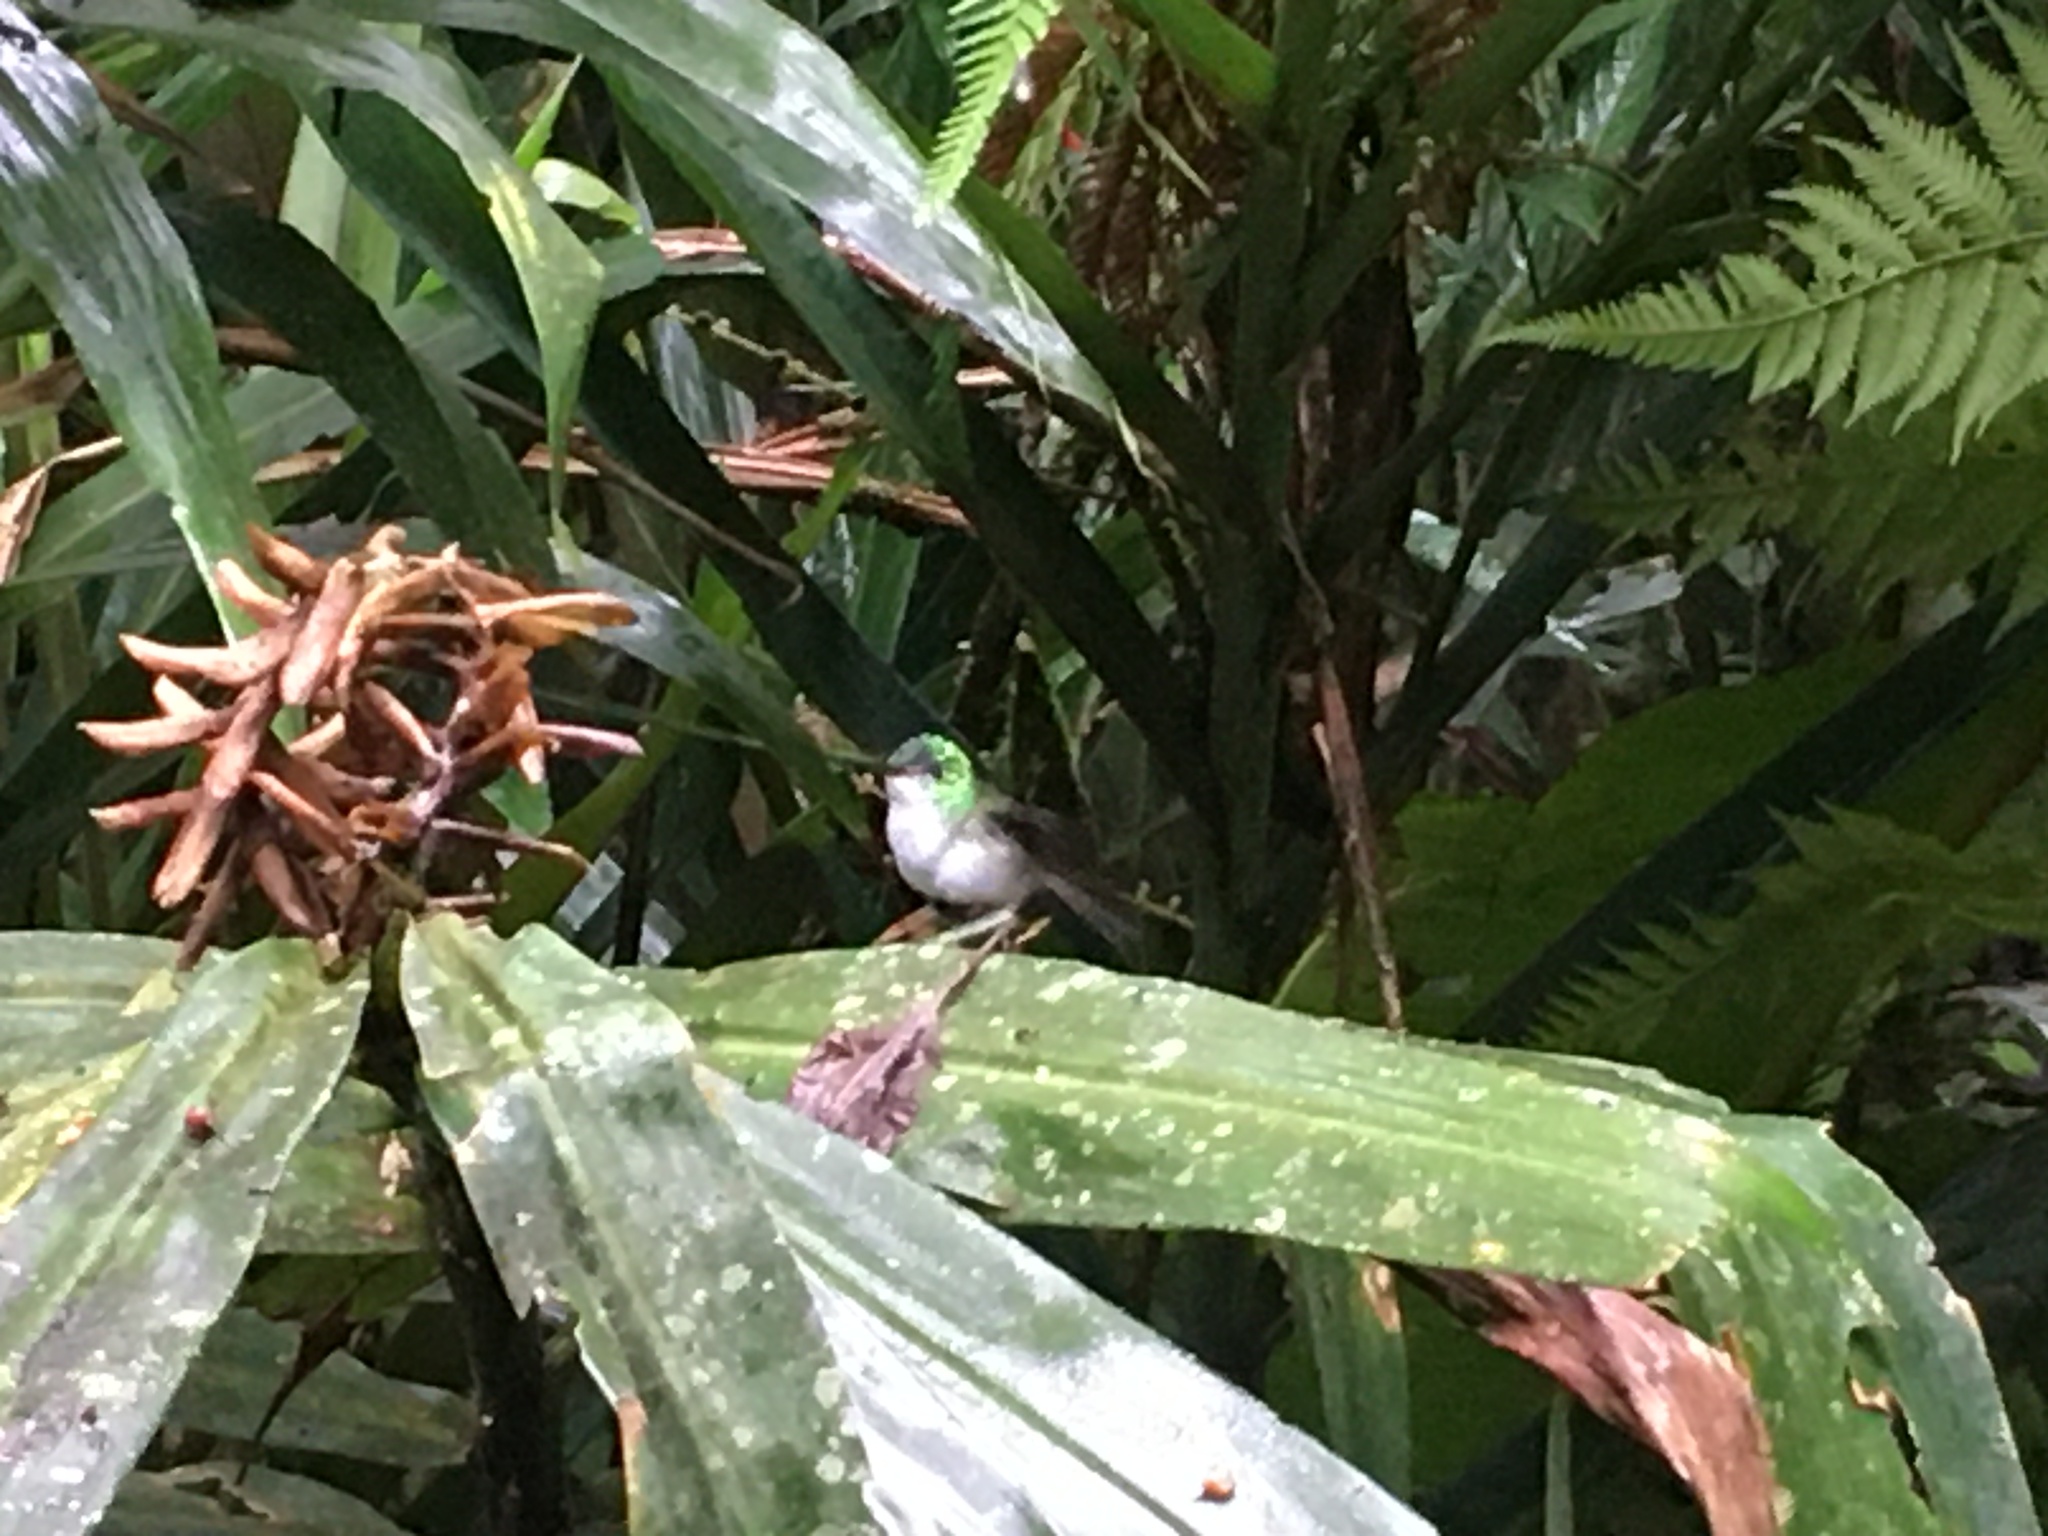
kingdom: Animalia
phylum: Chordata
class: Aves
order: Apodiformes
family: Trochilidae
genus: Uranomitra
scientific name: Uranomitra franciae
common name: Andean emerald
